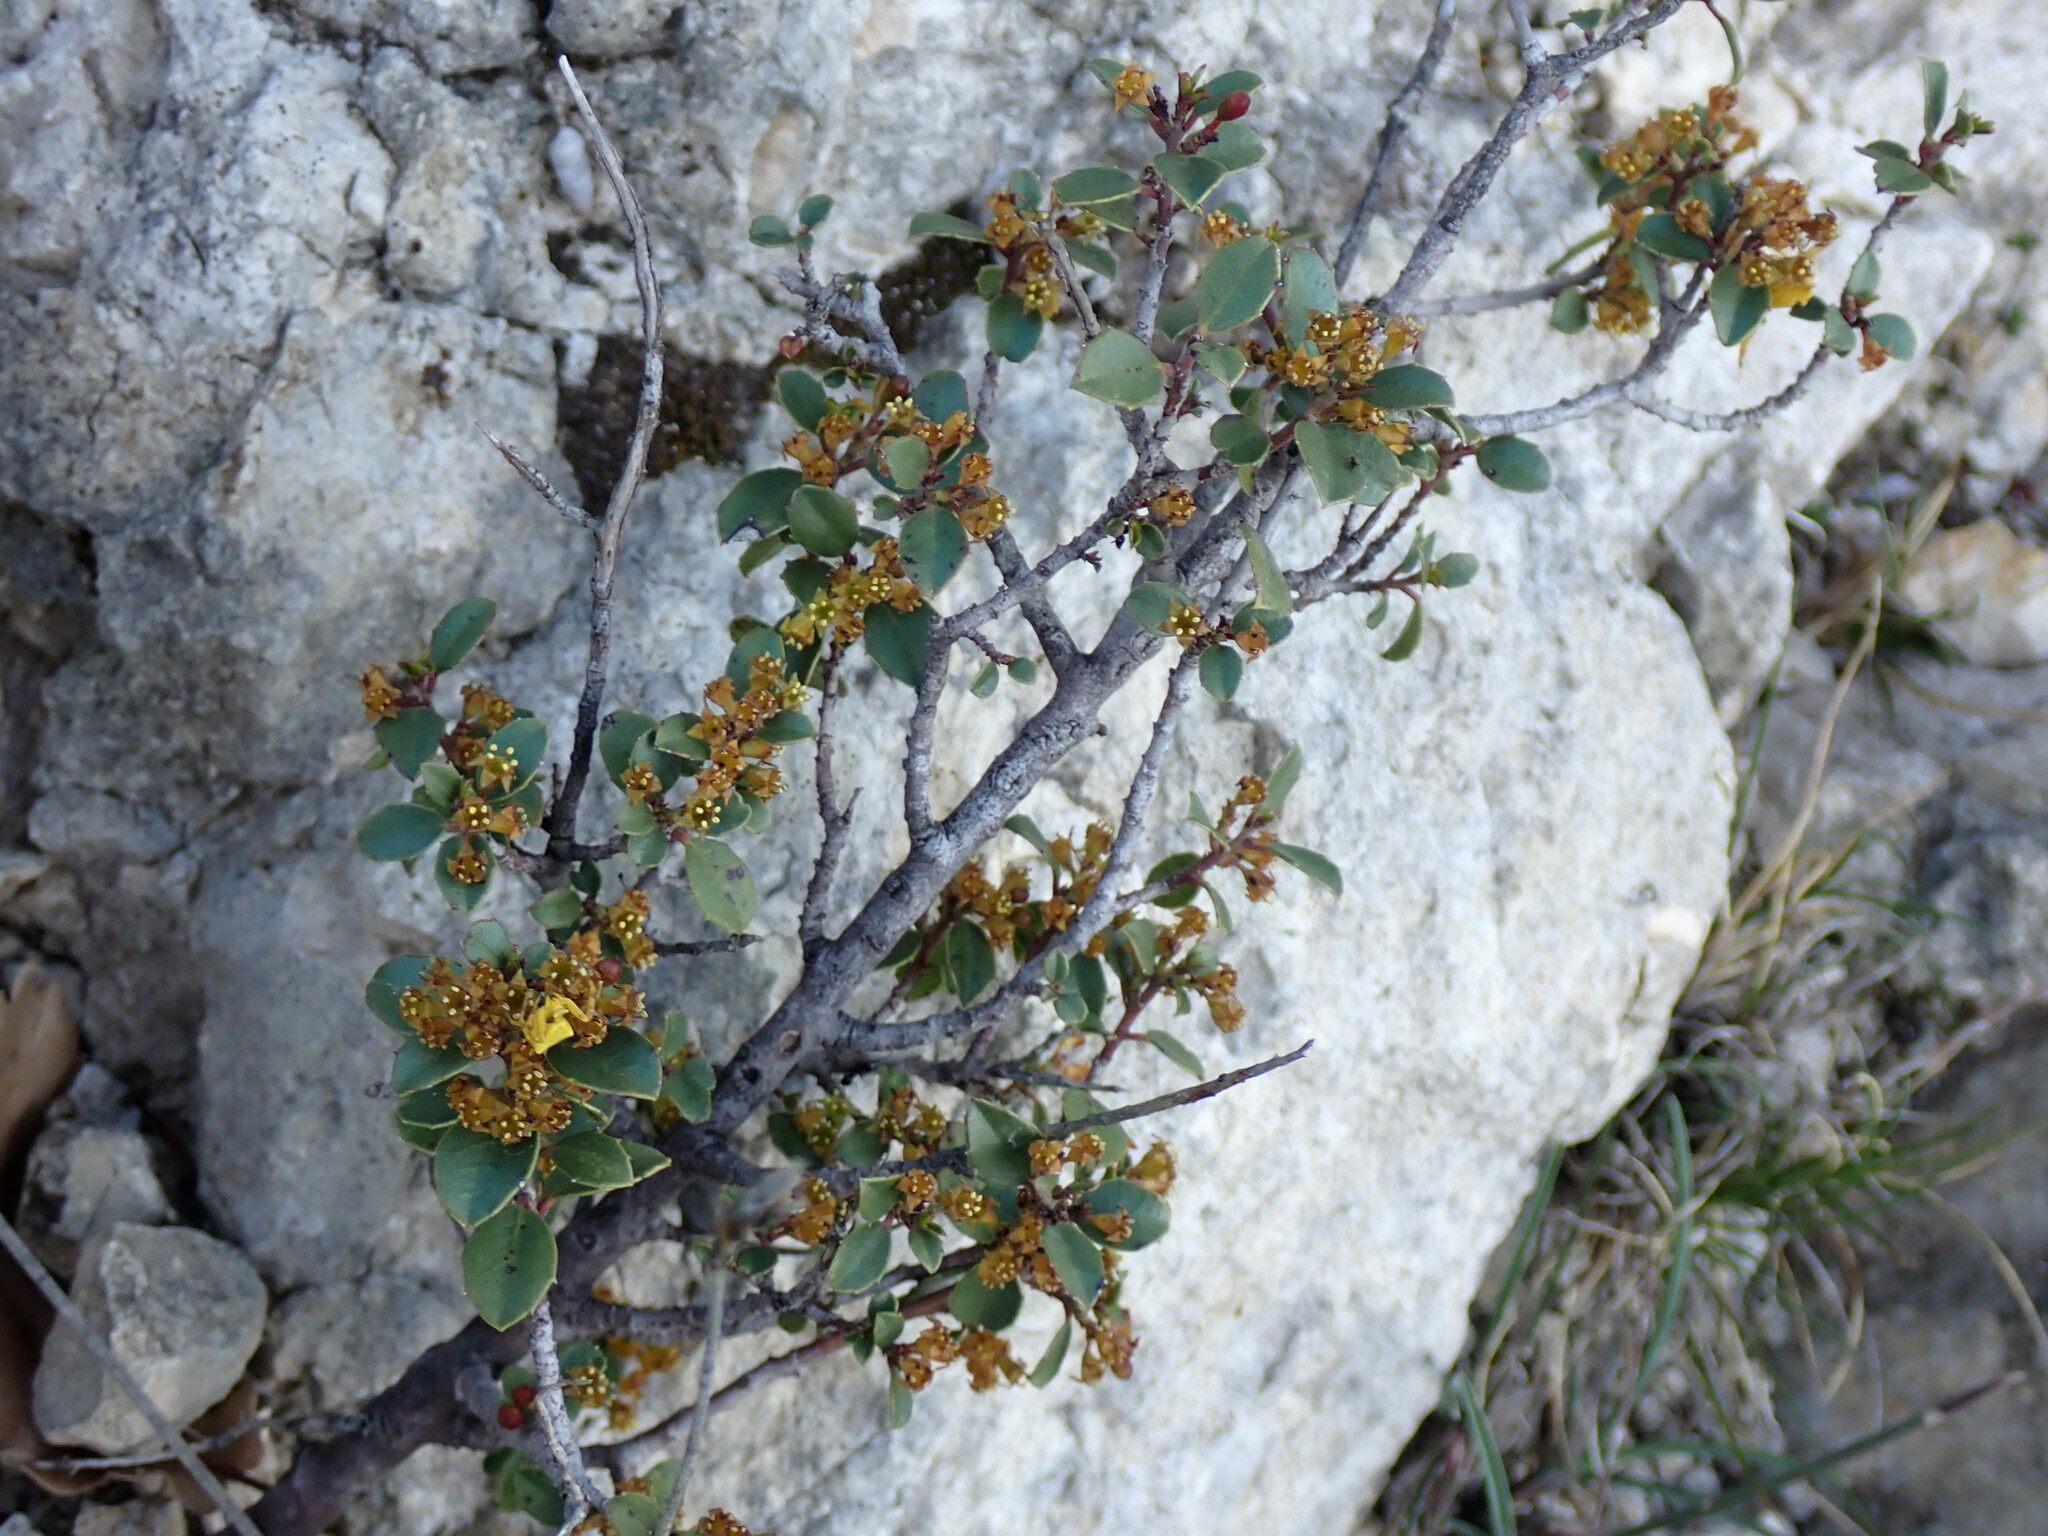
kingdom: Plantae
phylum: Tracheophyta
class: Magnoliopsida
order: Rosales
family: Rhamnaceae
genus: Rhamnus
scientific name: Rhamnus alaternus
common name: Mediterranean buckthorn
